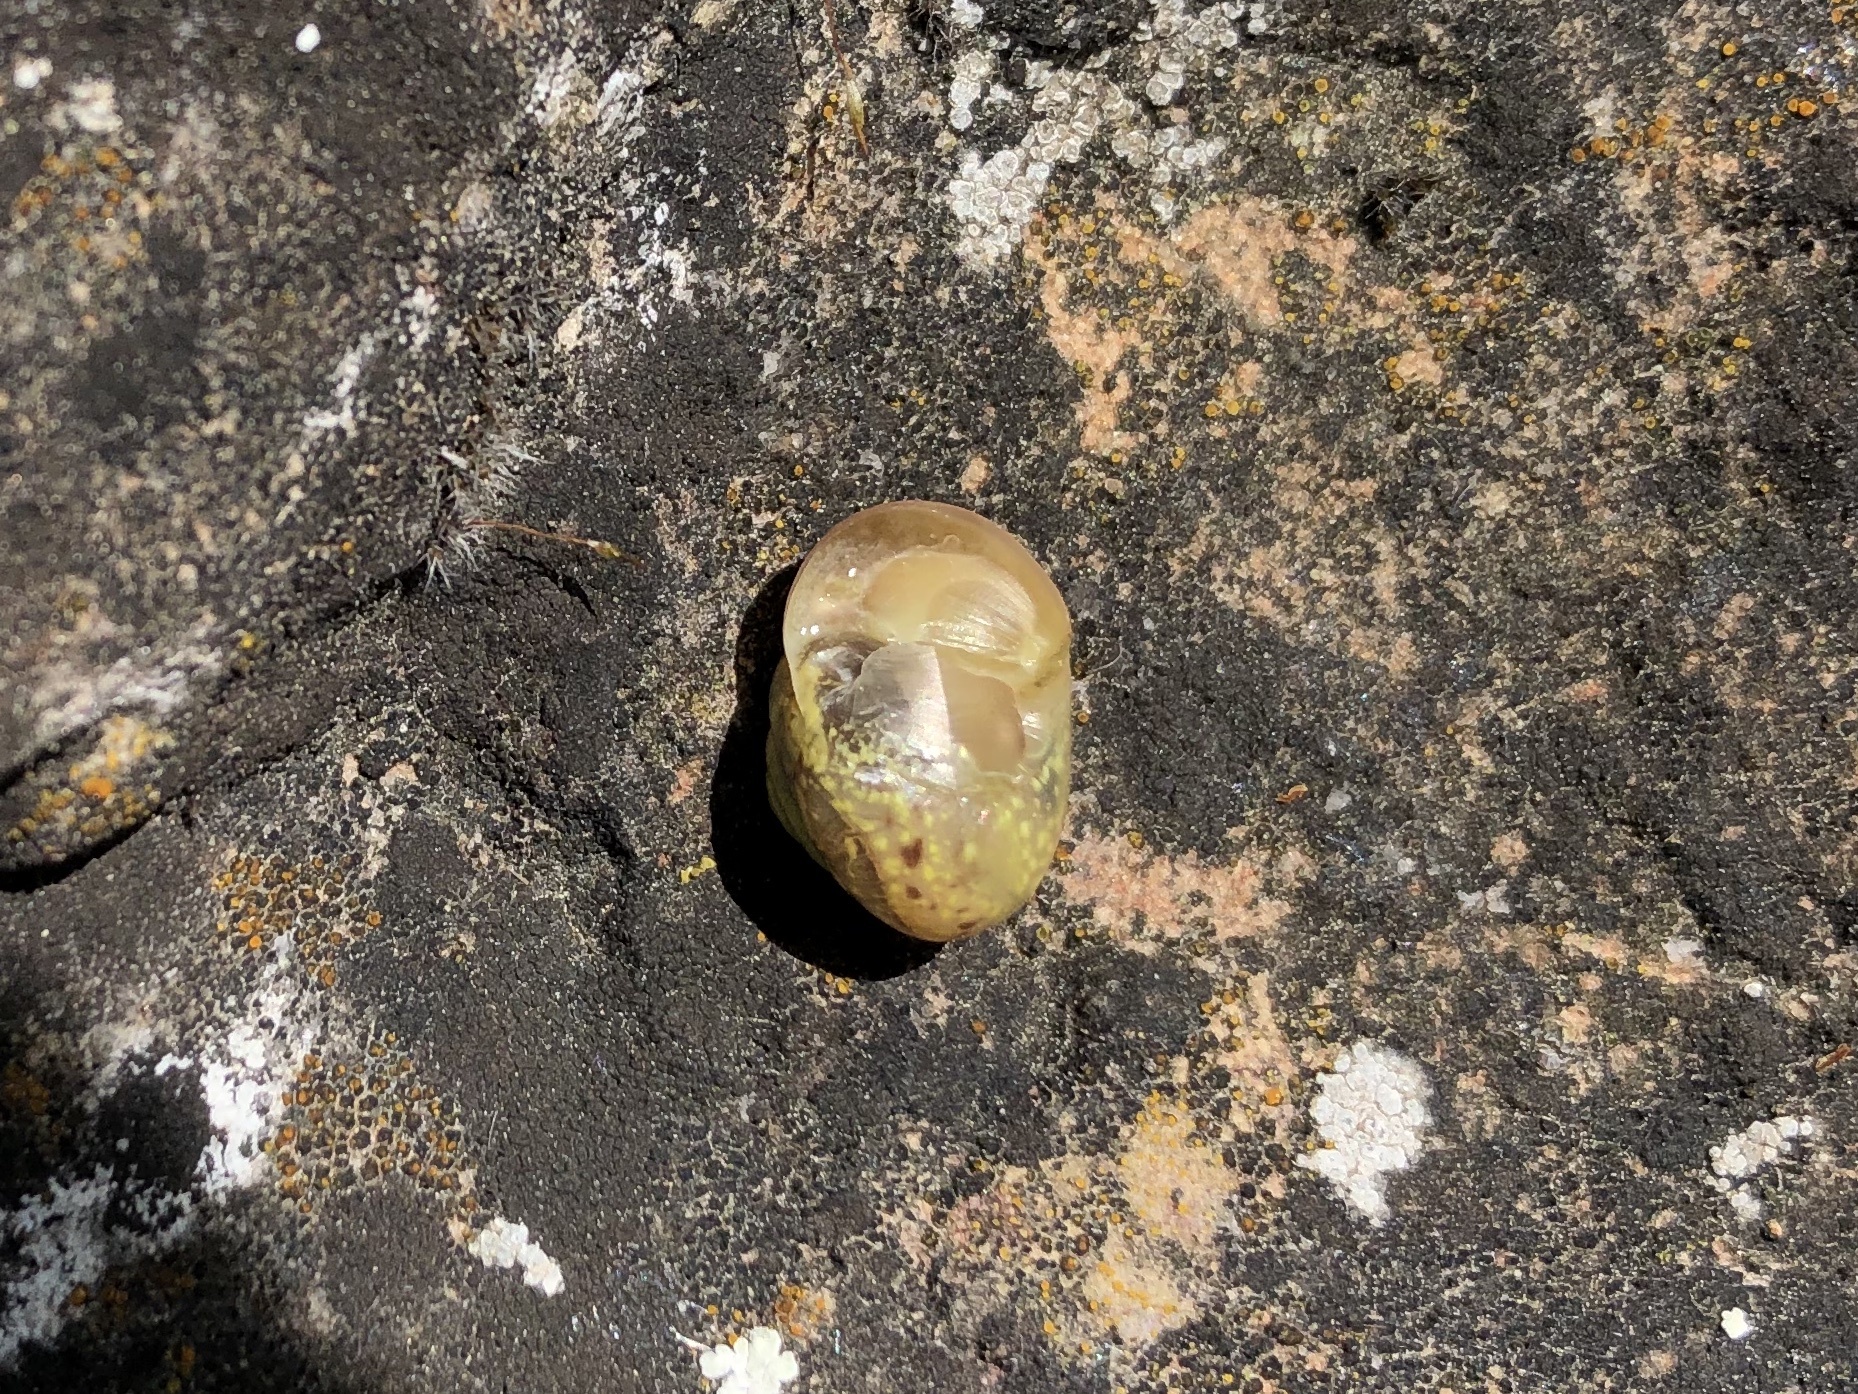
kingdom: Animalia
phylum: Mollusca
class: Gastropoda
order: Stylommatophora
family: Camaenidae
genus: Fruticicola
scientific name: Fruticicola fruticum
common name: Bush snail
